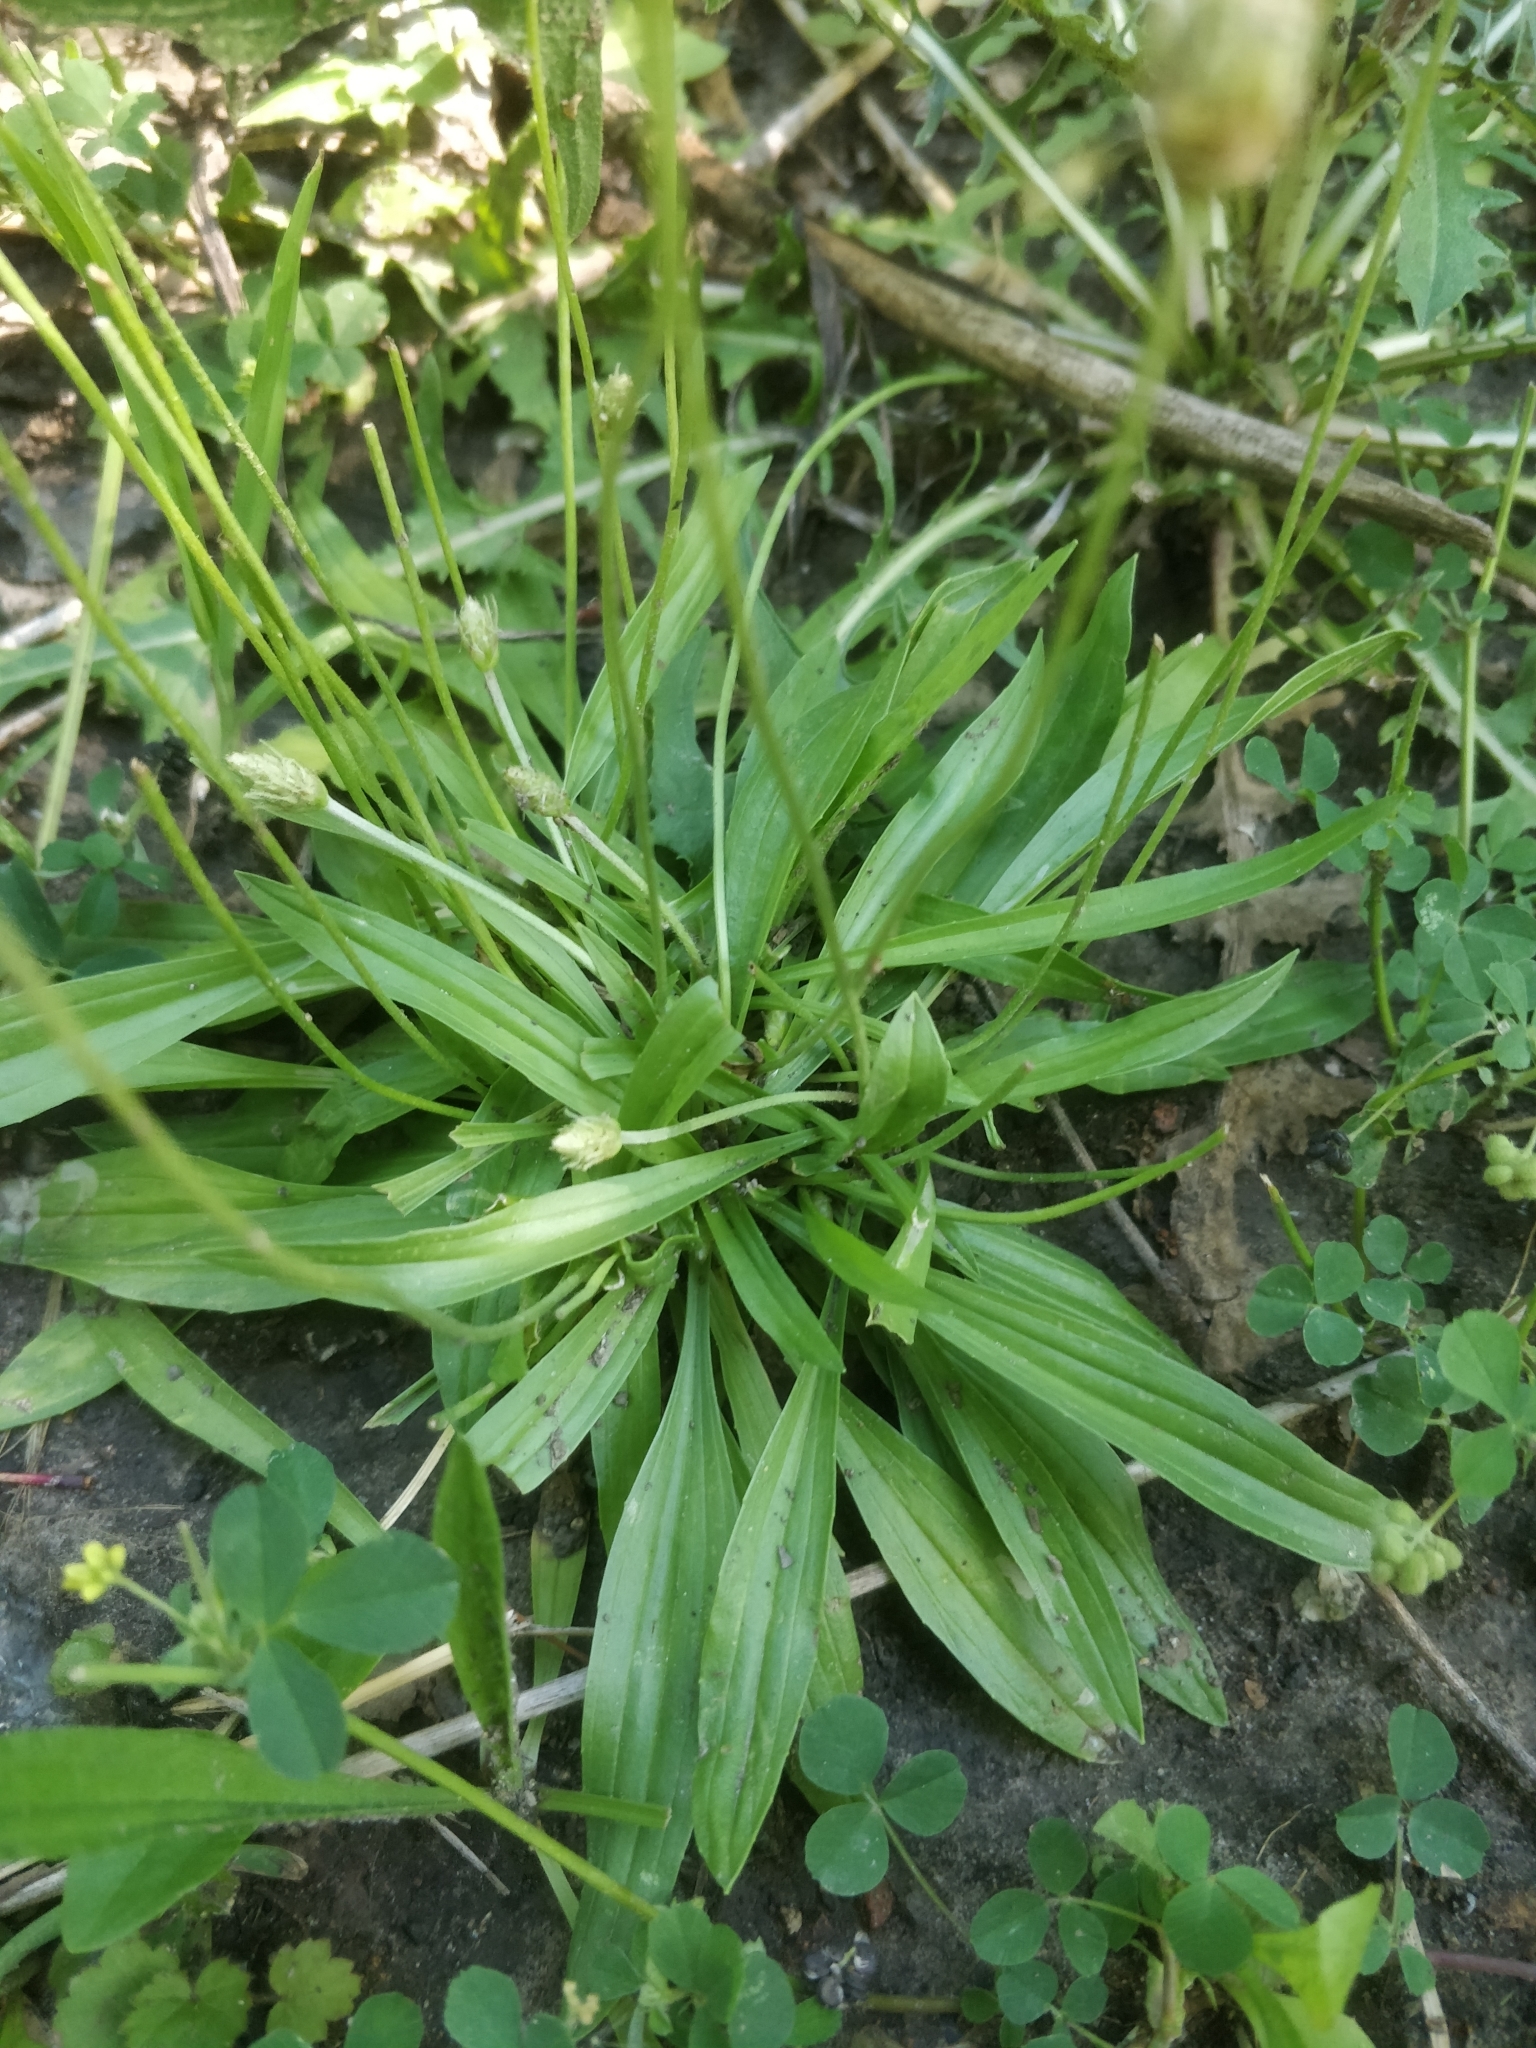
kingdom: Plantae
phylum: Tracheophyta
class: Magnoliopsida
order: Lamiales
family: Plantaginaceae
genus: Plantago
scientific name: Plantago lanceolata
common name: Ribwort plantain
